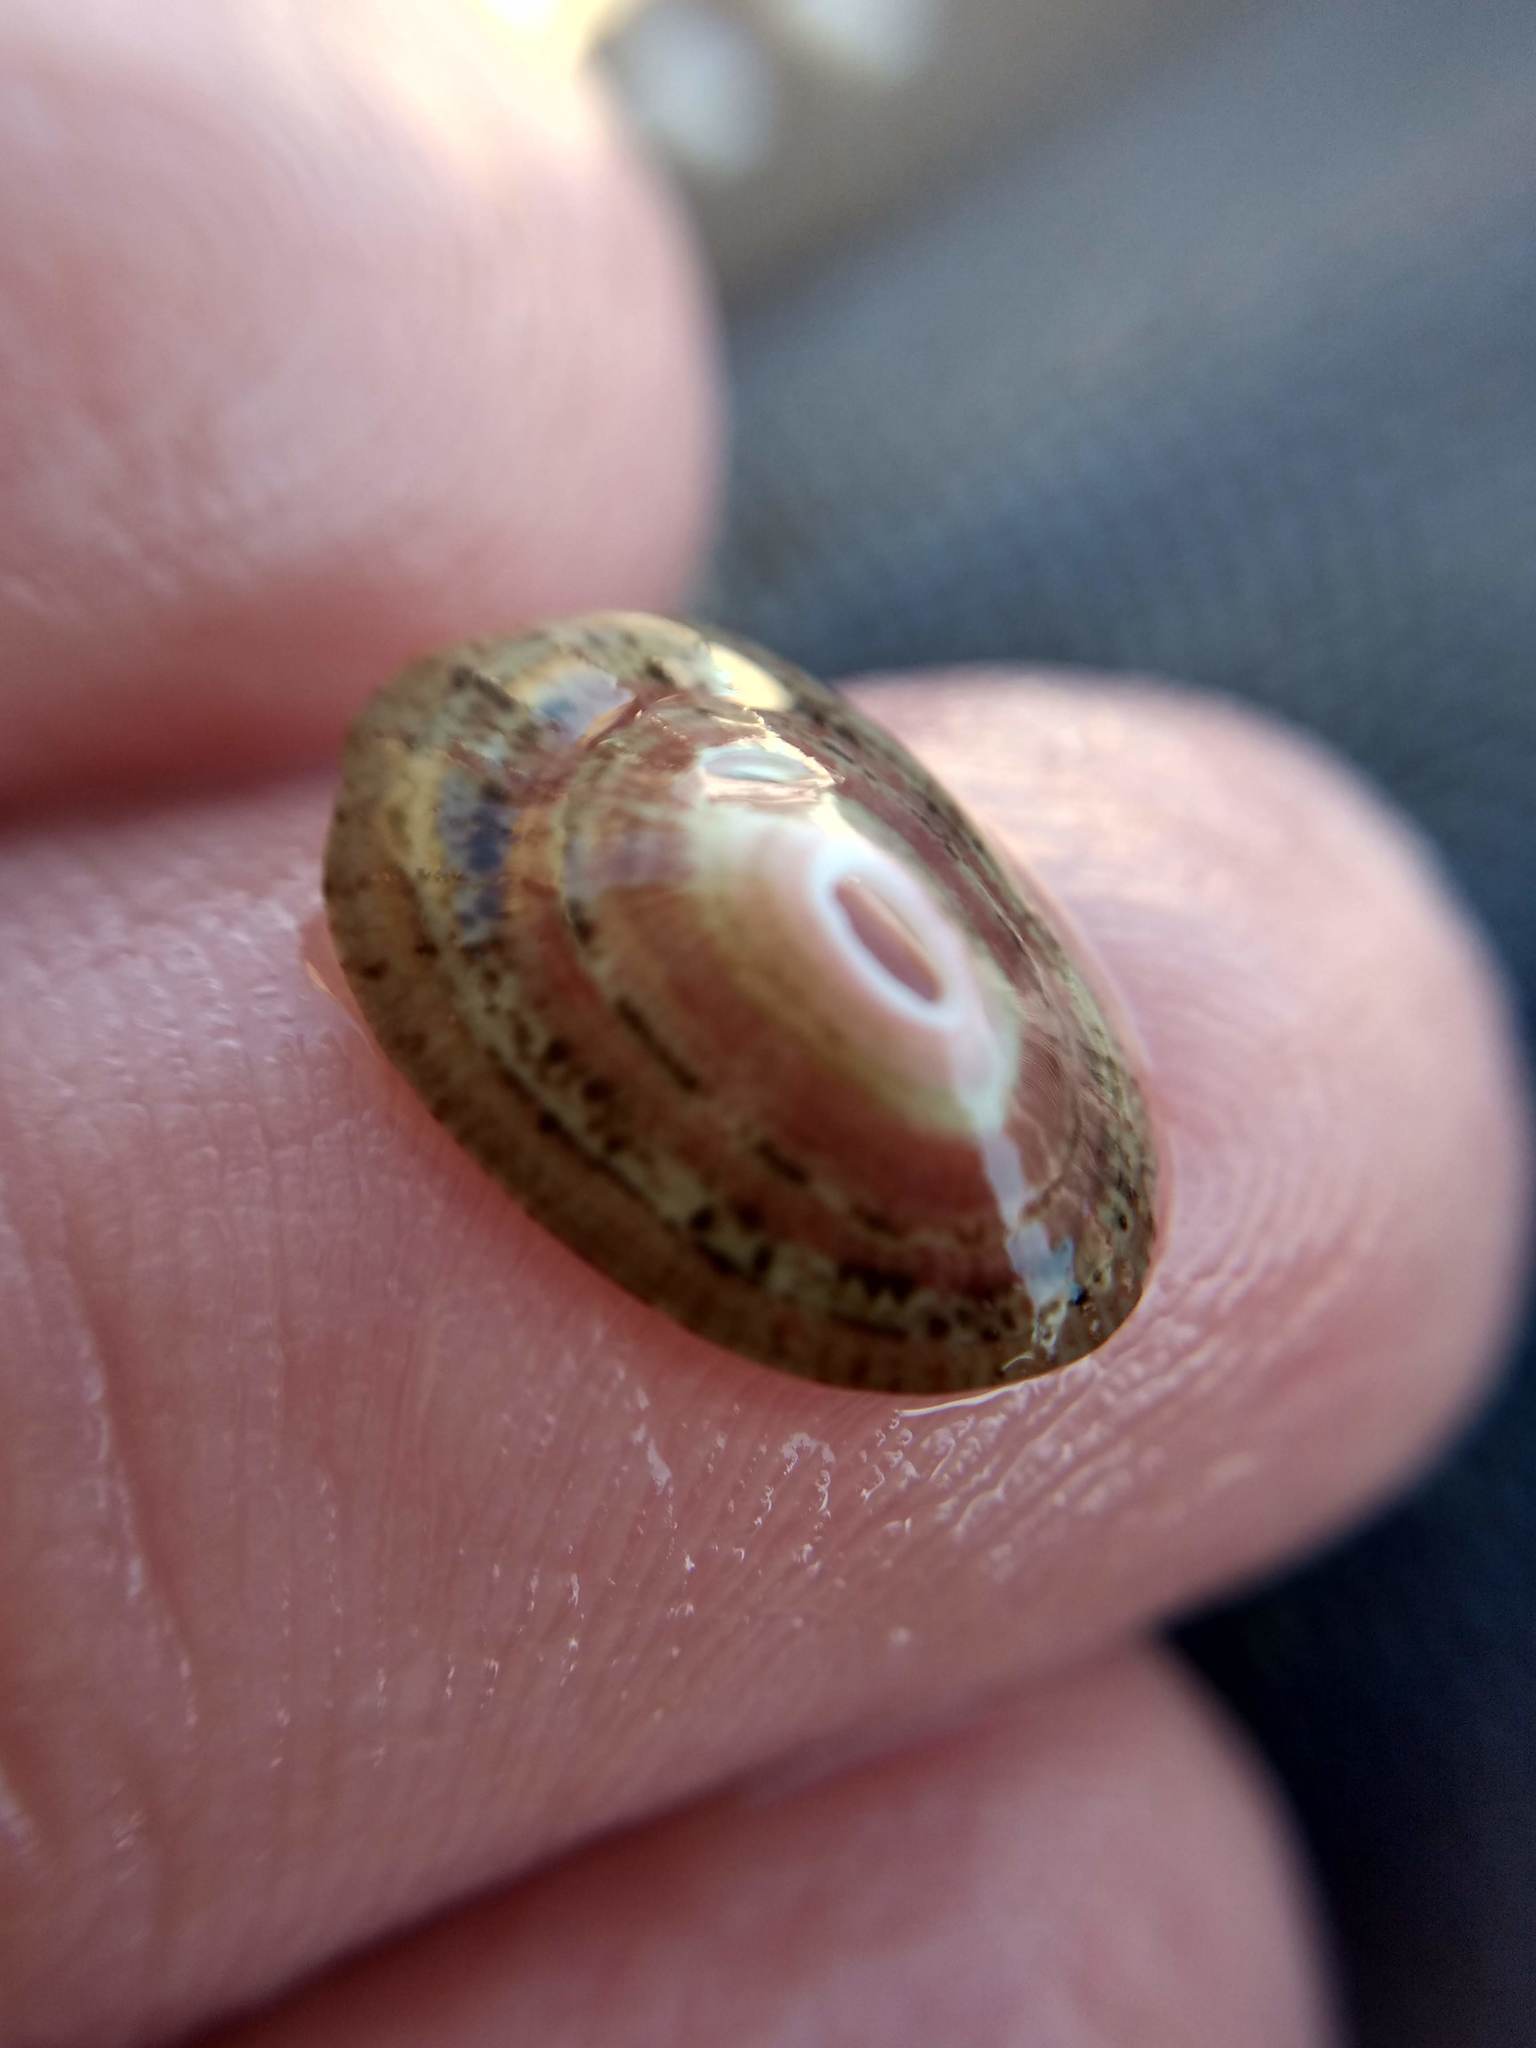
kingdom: Animalia
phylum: Mollusca
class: Gastropoda
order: Lepetellida
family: Fissurellidae
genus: Fissurella
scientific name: Fissurella volcano
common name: Volcano keyhole limpet
